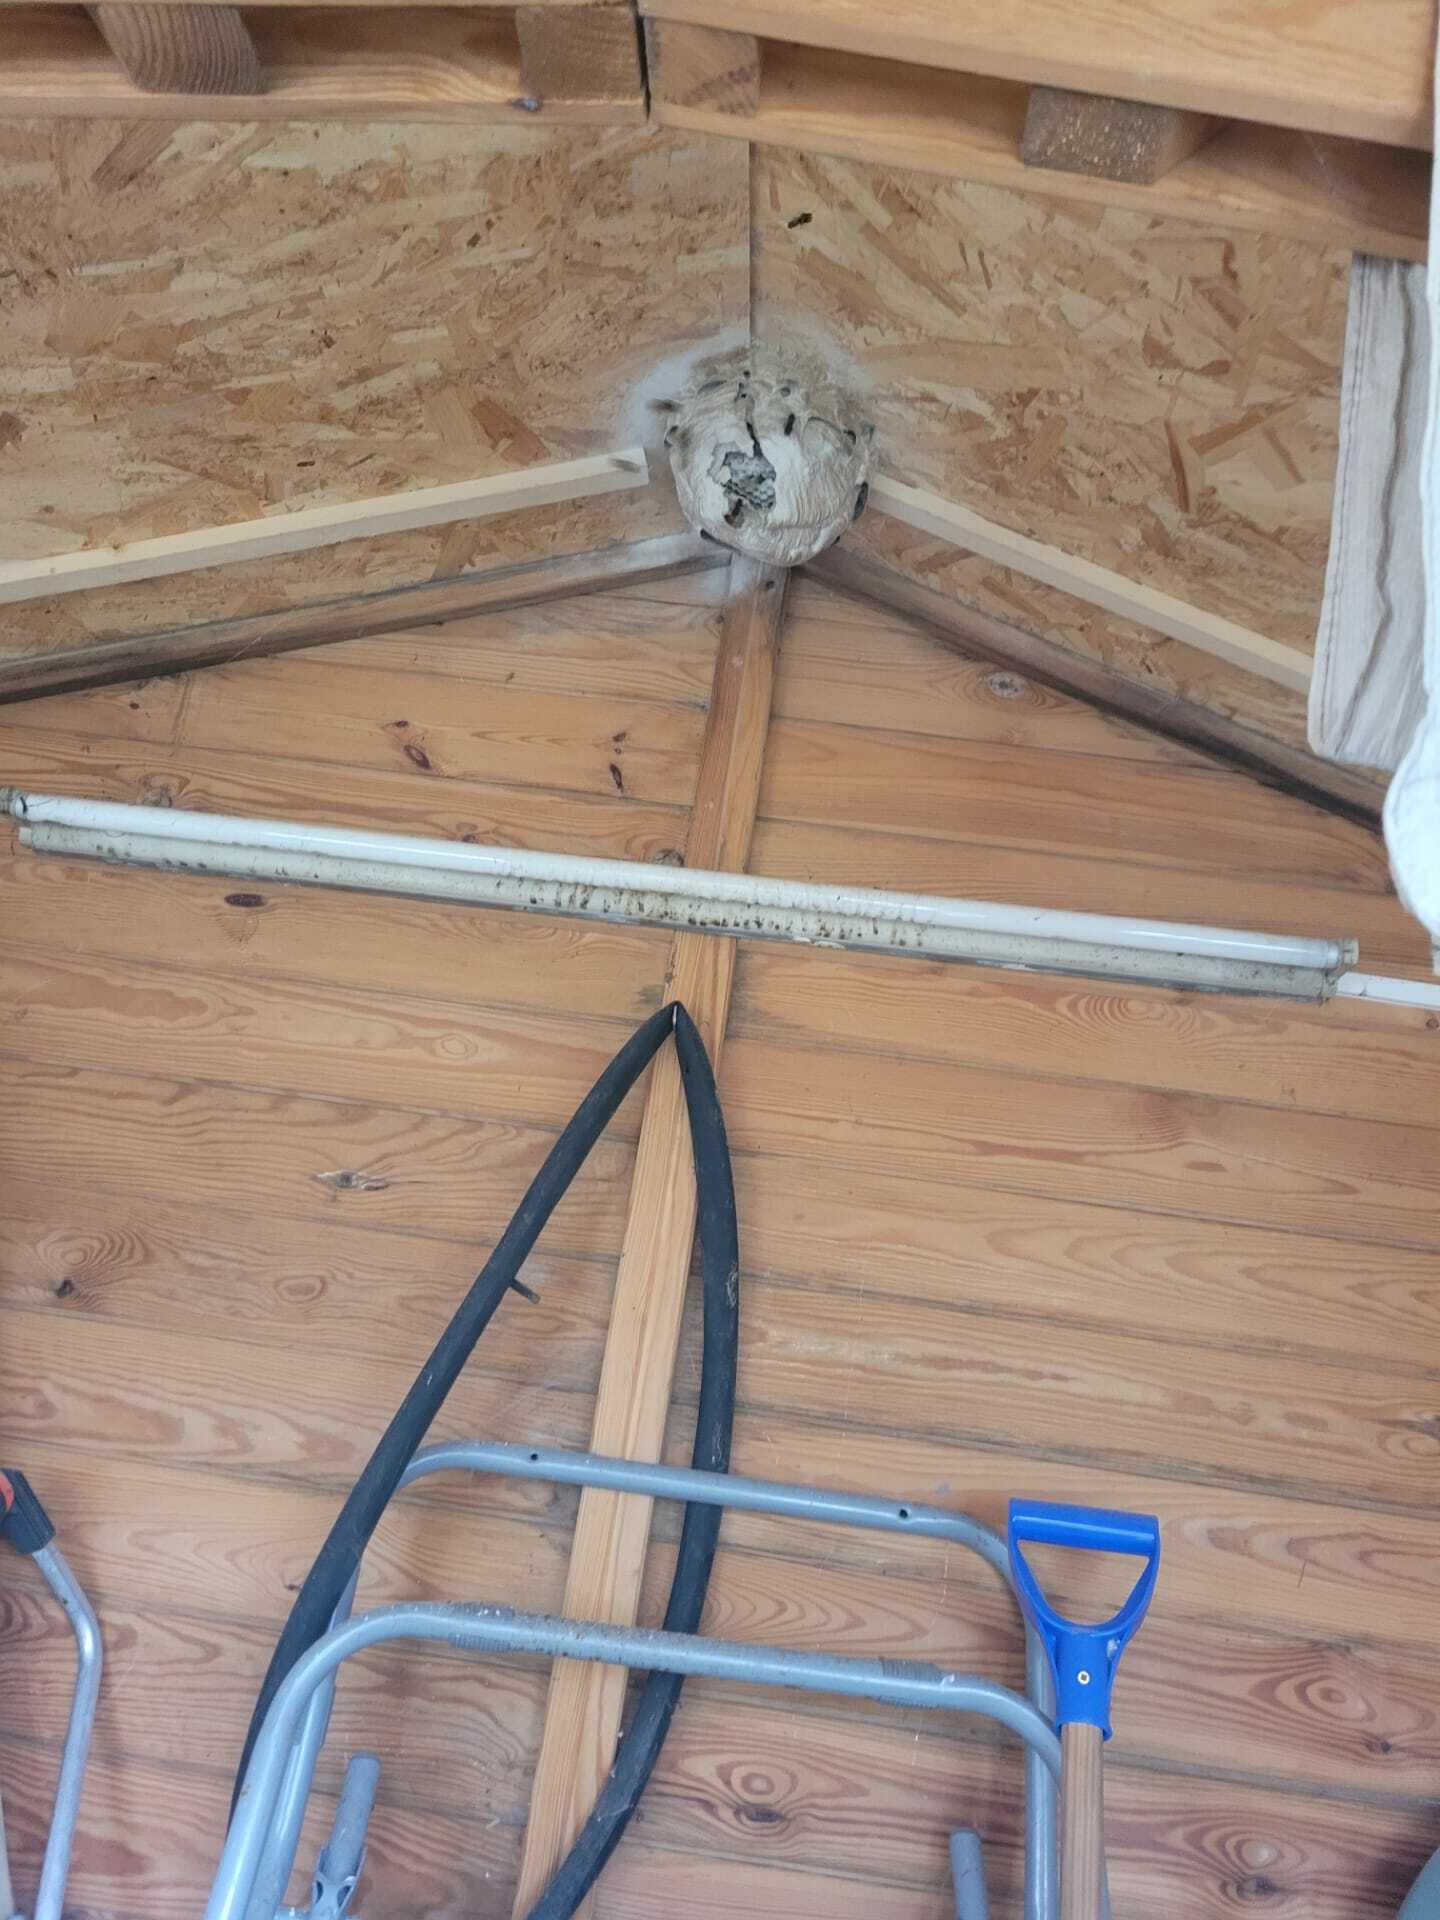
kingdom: Animalia
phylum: Arthropoda
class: Insecta
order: Hymenoptera
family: Vespidae
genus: Vespa
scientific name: Vespa velutina
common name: Asian hornet
